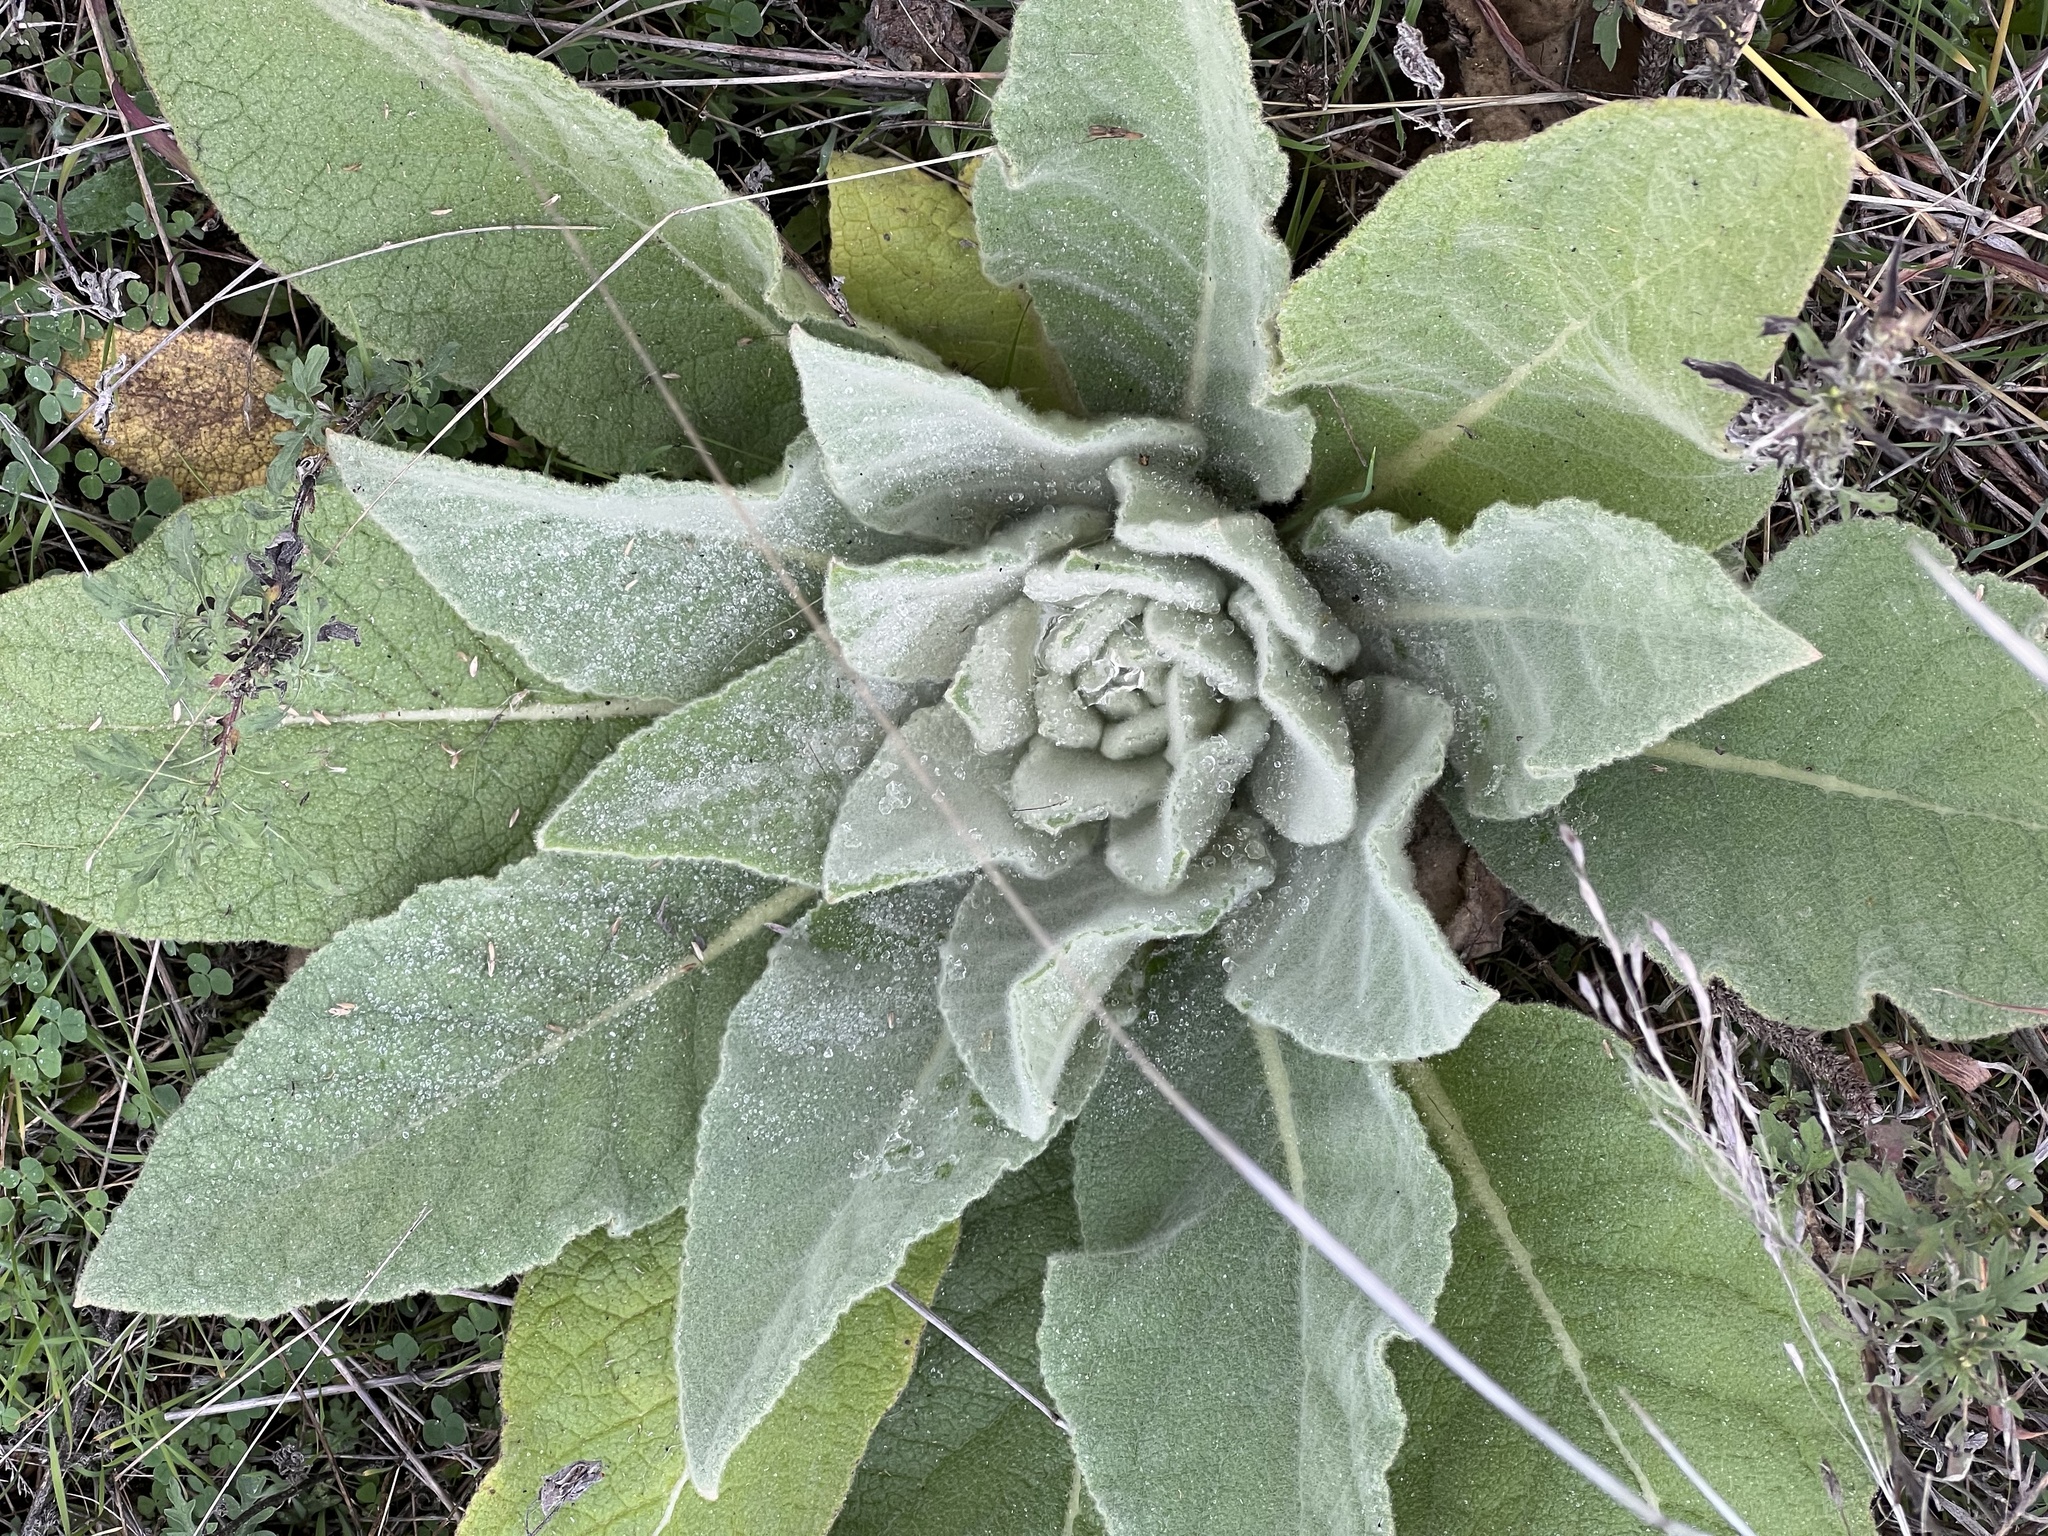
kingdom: Plantae
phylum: Tracheophyta
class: Magnoliopsida
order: Lamiales
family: Scrophulariaceae
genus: Verbascum
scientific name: Verbascum thapsus
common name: Common mullein
